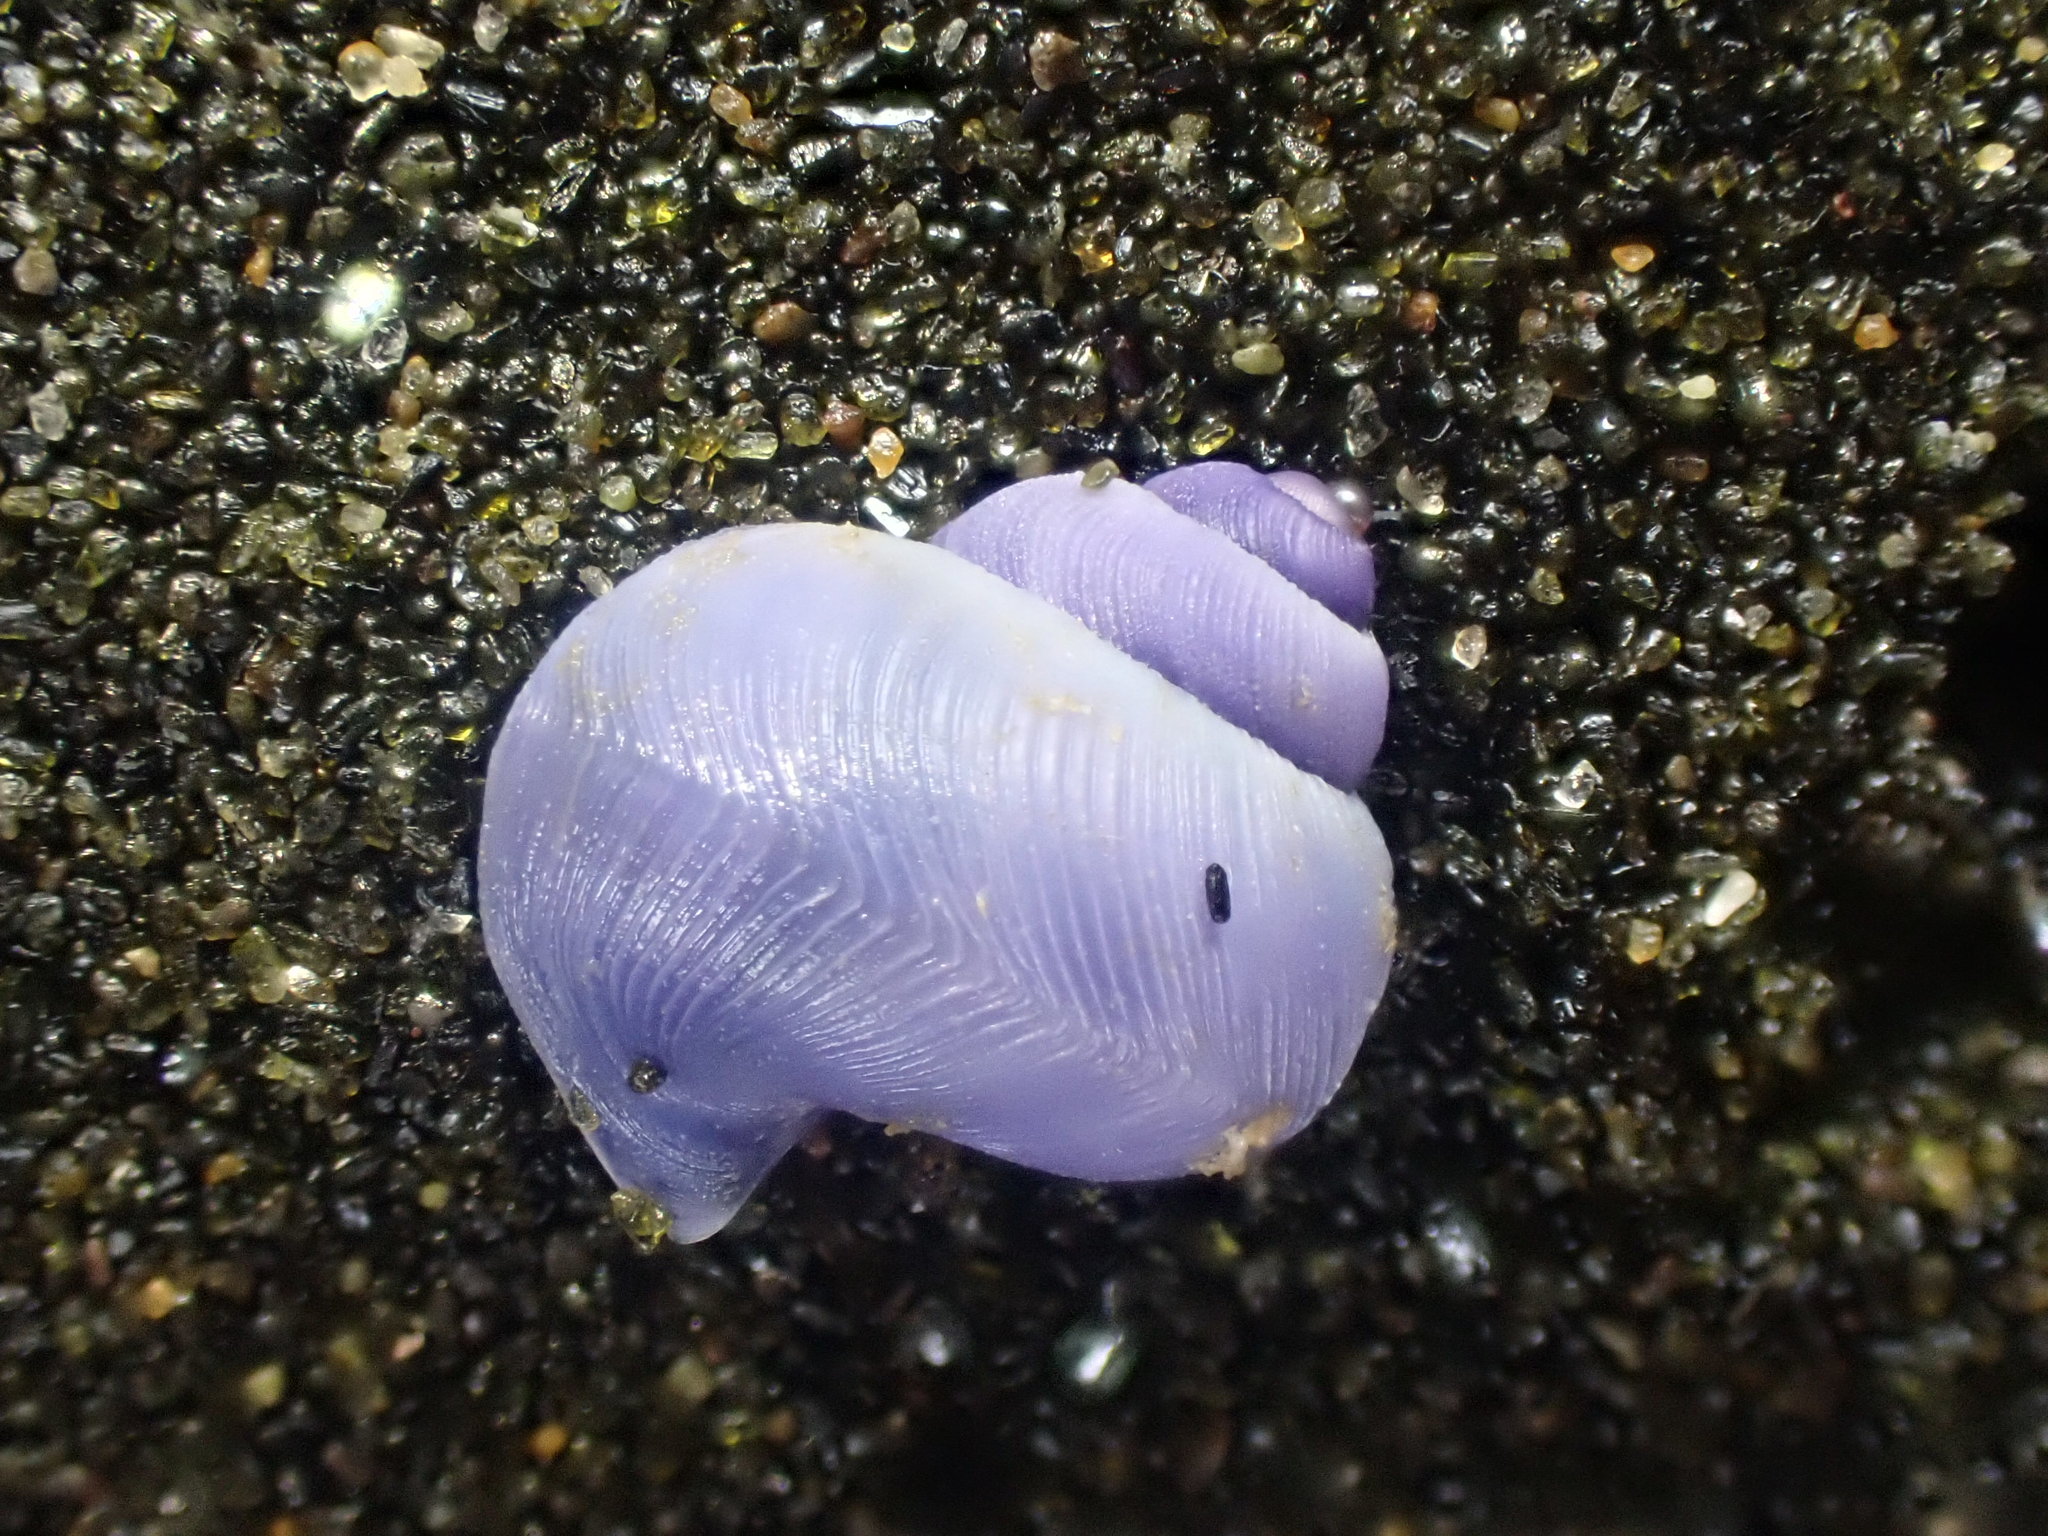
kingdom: Animalia
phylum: Mollusca
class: Gastropoda
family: Epitoniidae
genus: Janthina
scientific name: Janthina exigua
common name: Dwarf janthina
